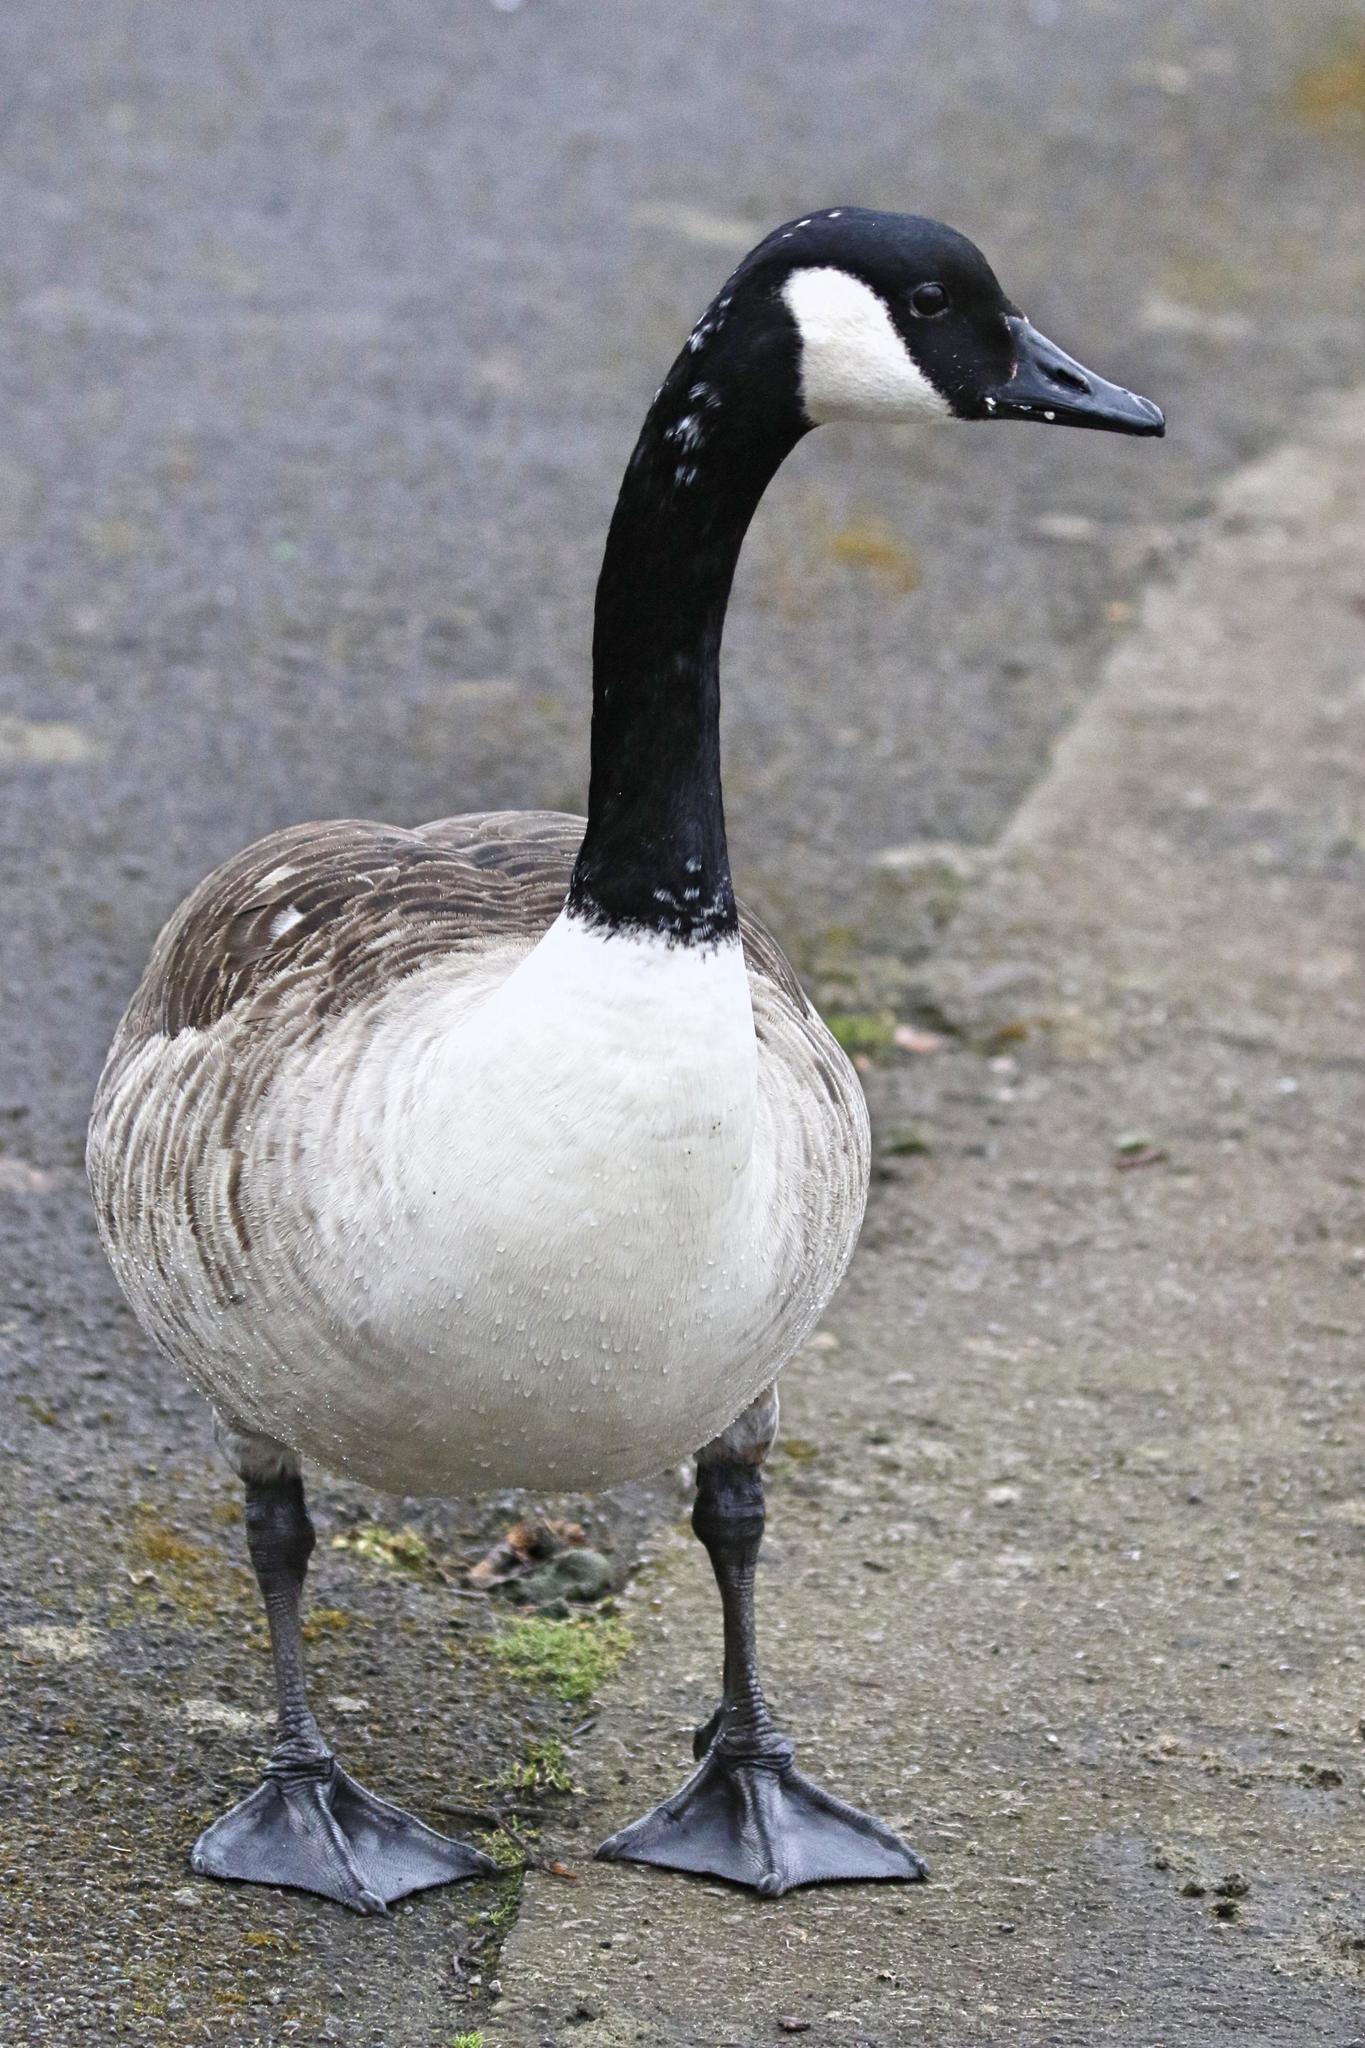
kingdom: Animalia
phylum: Chordata
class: Aves
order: Anseriformes
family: Anatidae
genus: Branta
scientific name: Branta canadensis
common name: Canada goose
